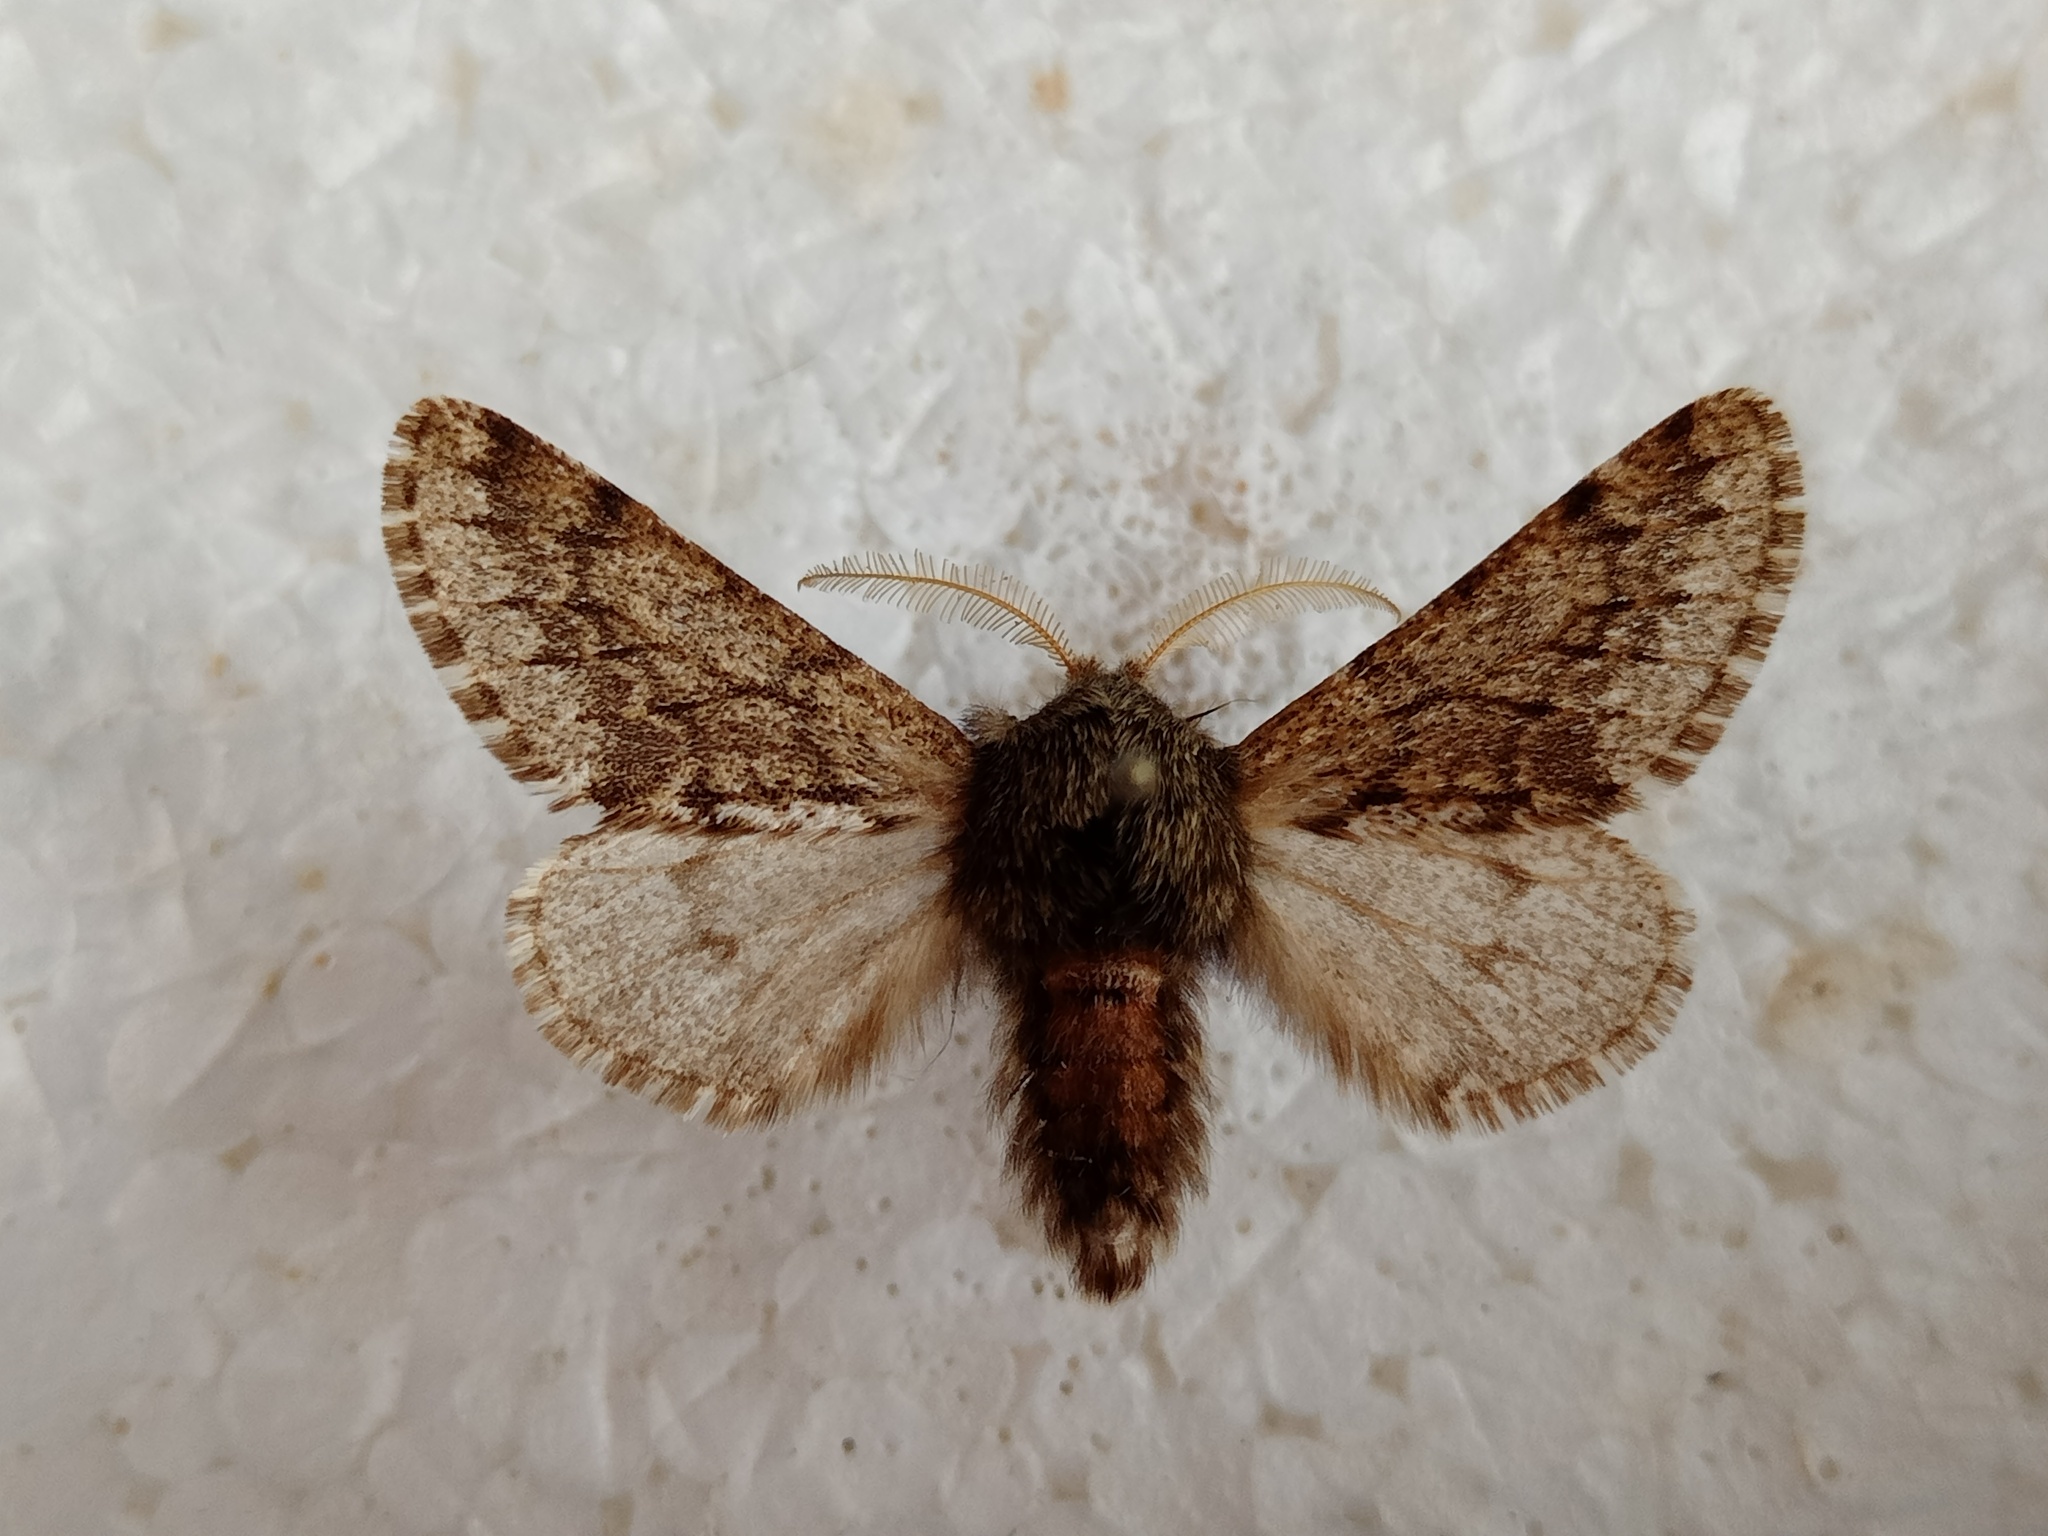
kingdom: Animalia
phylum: Arthropoda
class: Insecta
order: Lepidoptera
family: Geometridae
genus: Apocheima
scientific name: Apocheima hispidaria
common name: Small brindled beauty
